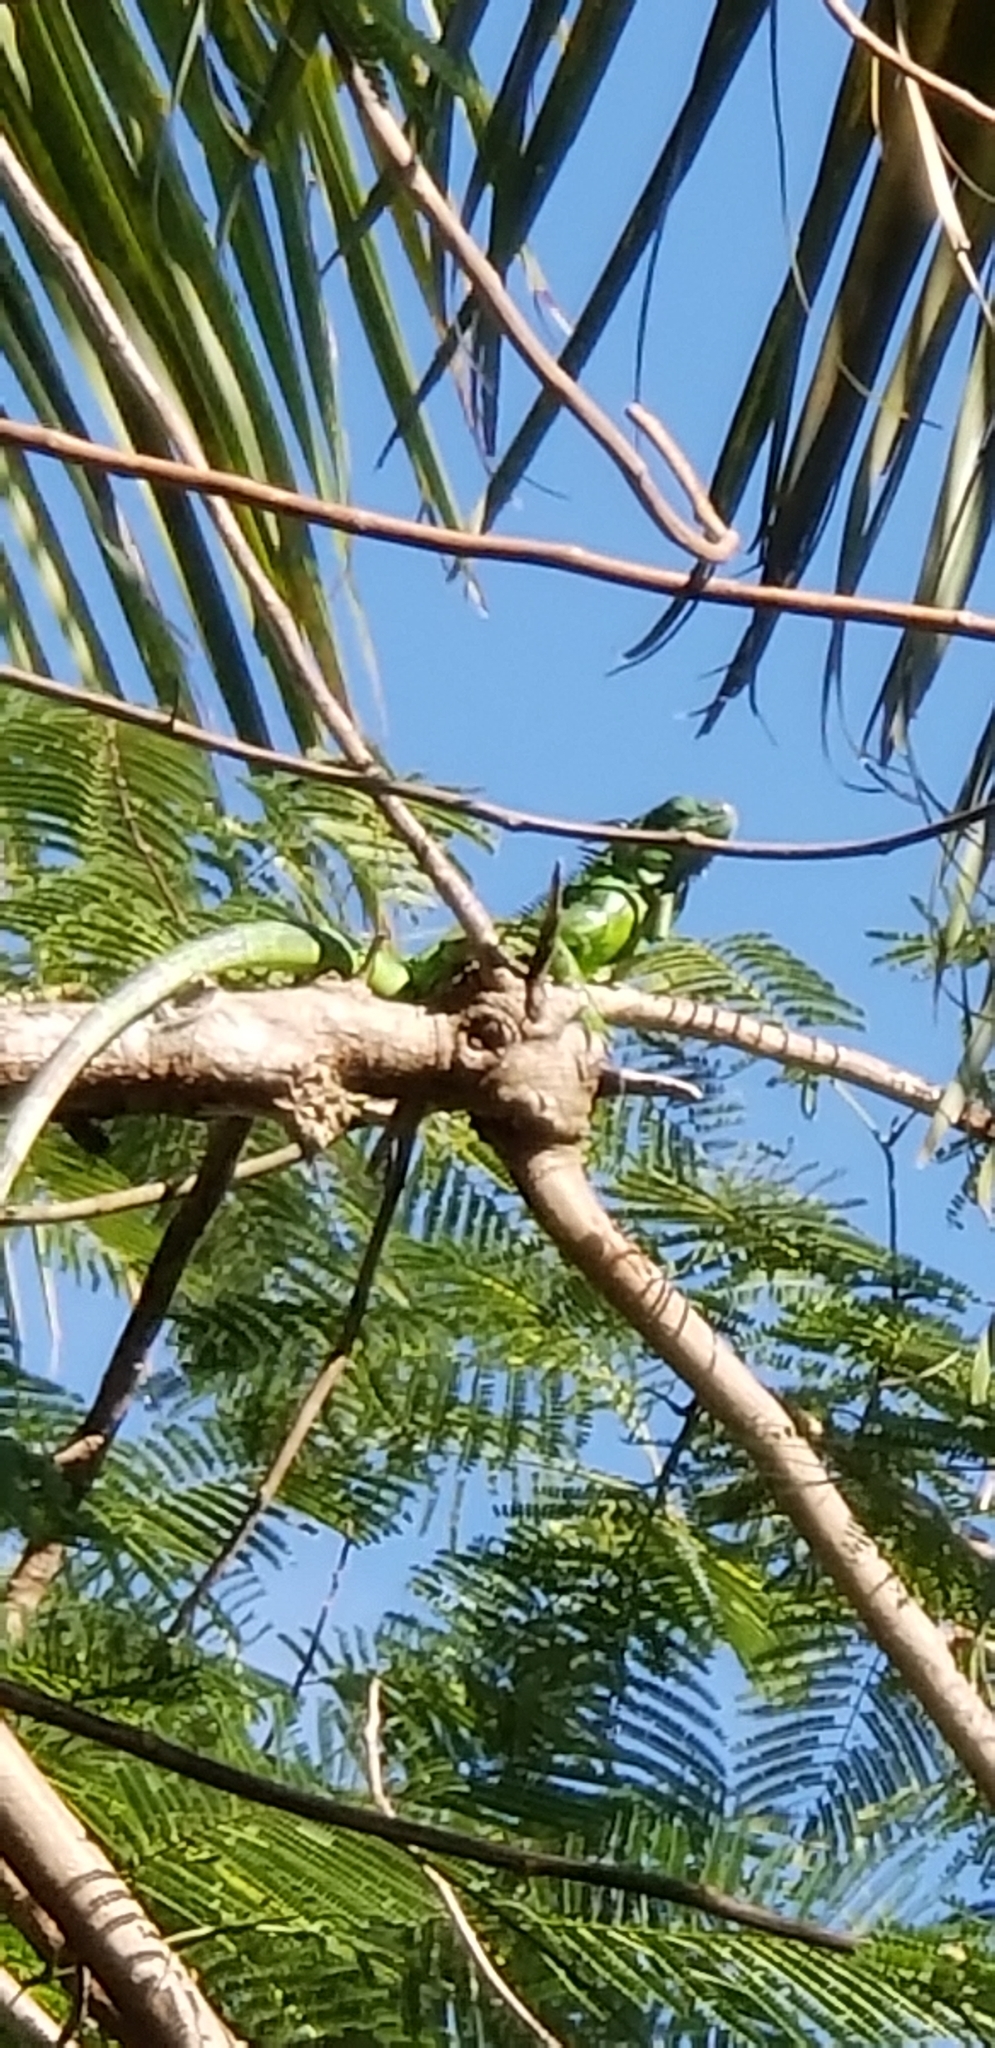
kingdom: Animalia
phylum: Chordata
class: Squamata
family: Iguanidae
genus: Iguana
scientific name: Iguana iguana
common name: Green iguana
